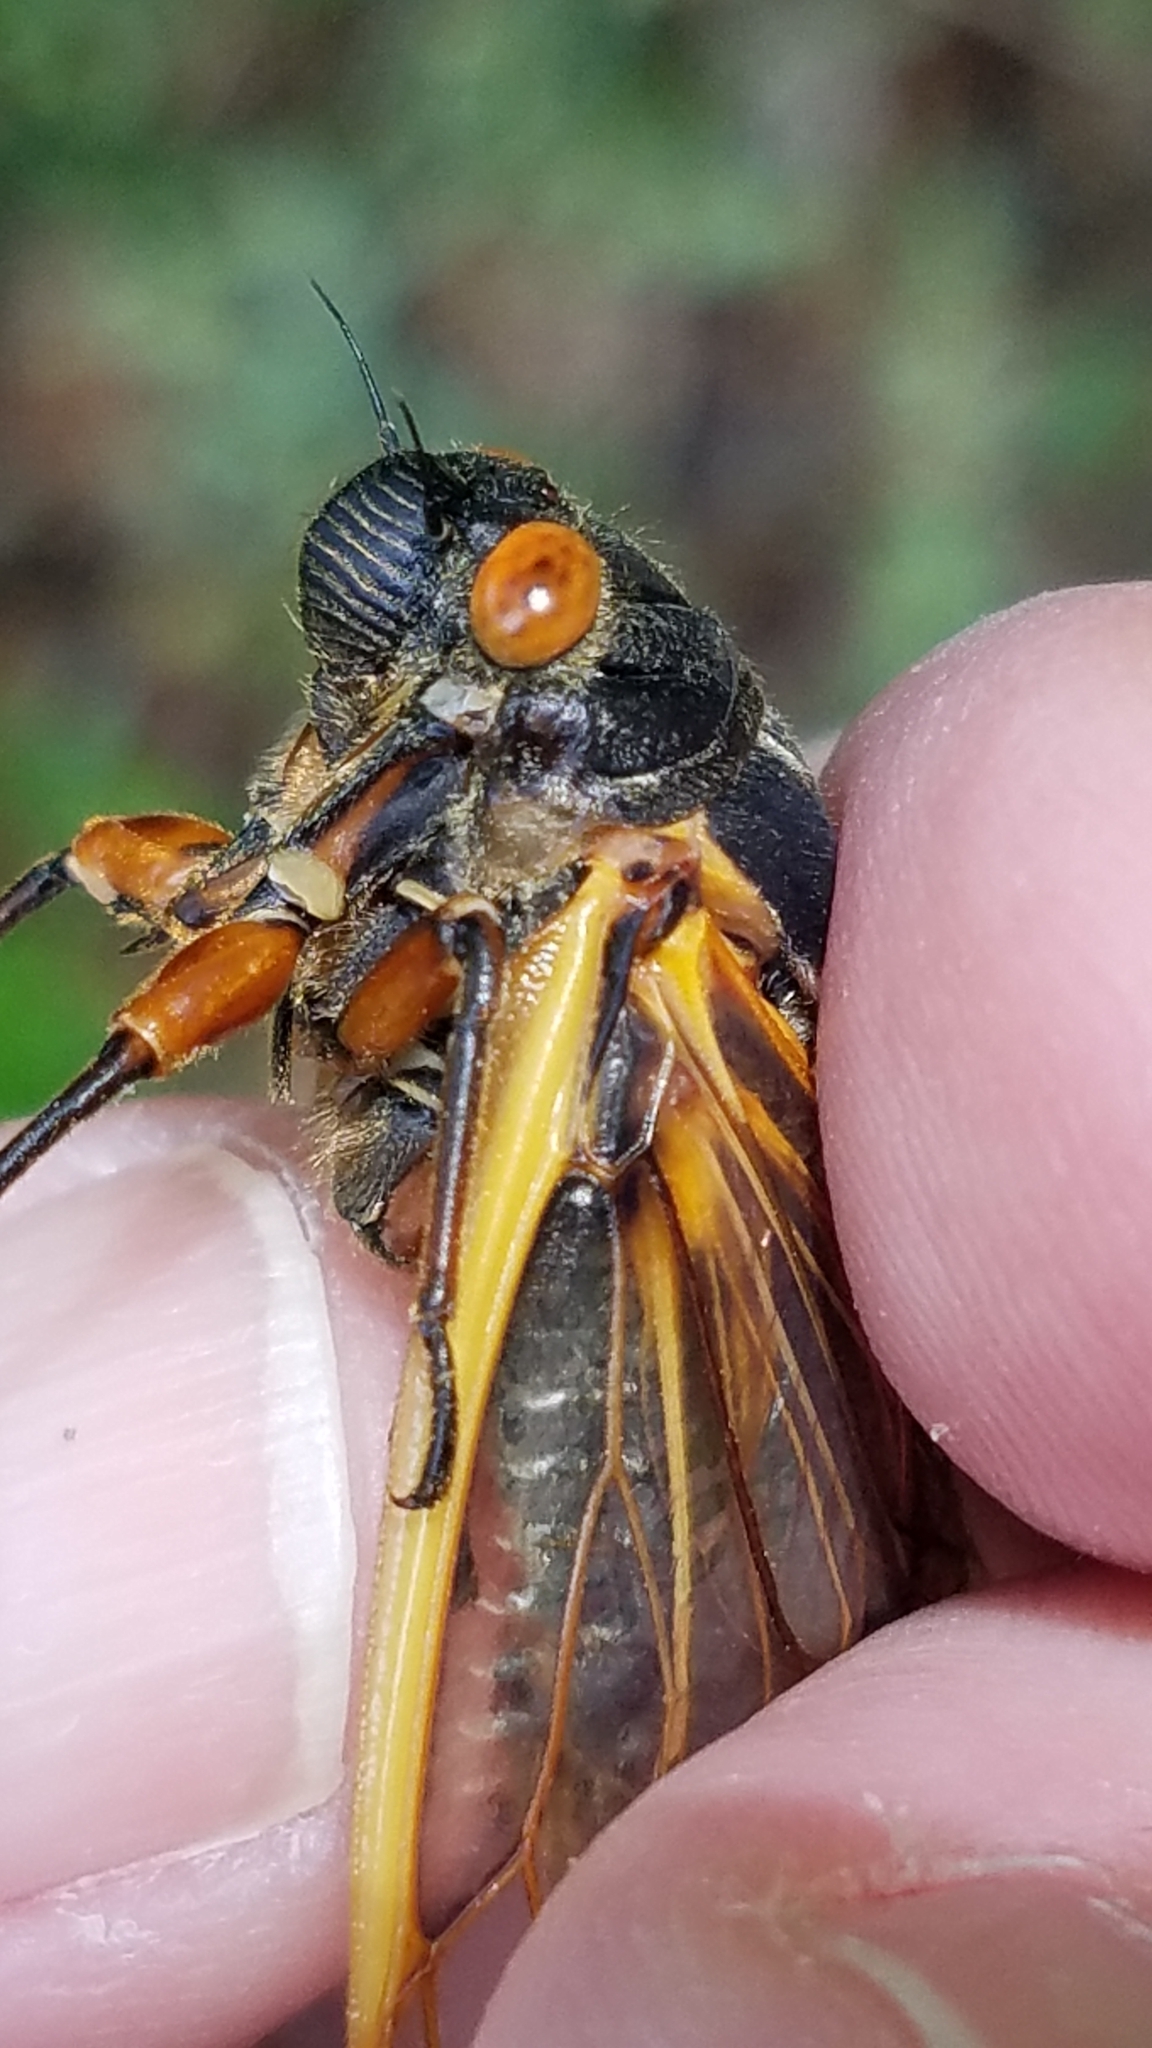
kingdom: Animalia
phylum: Arthropoda
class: Insecta
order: Hemiptera
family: Cicadidae
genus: Magicicada
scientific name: Magicicada septendecula
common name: Decula periodical cicada
